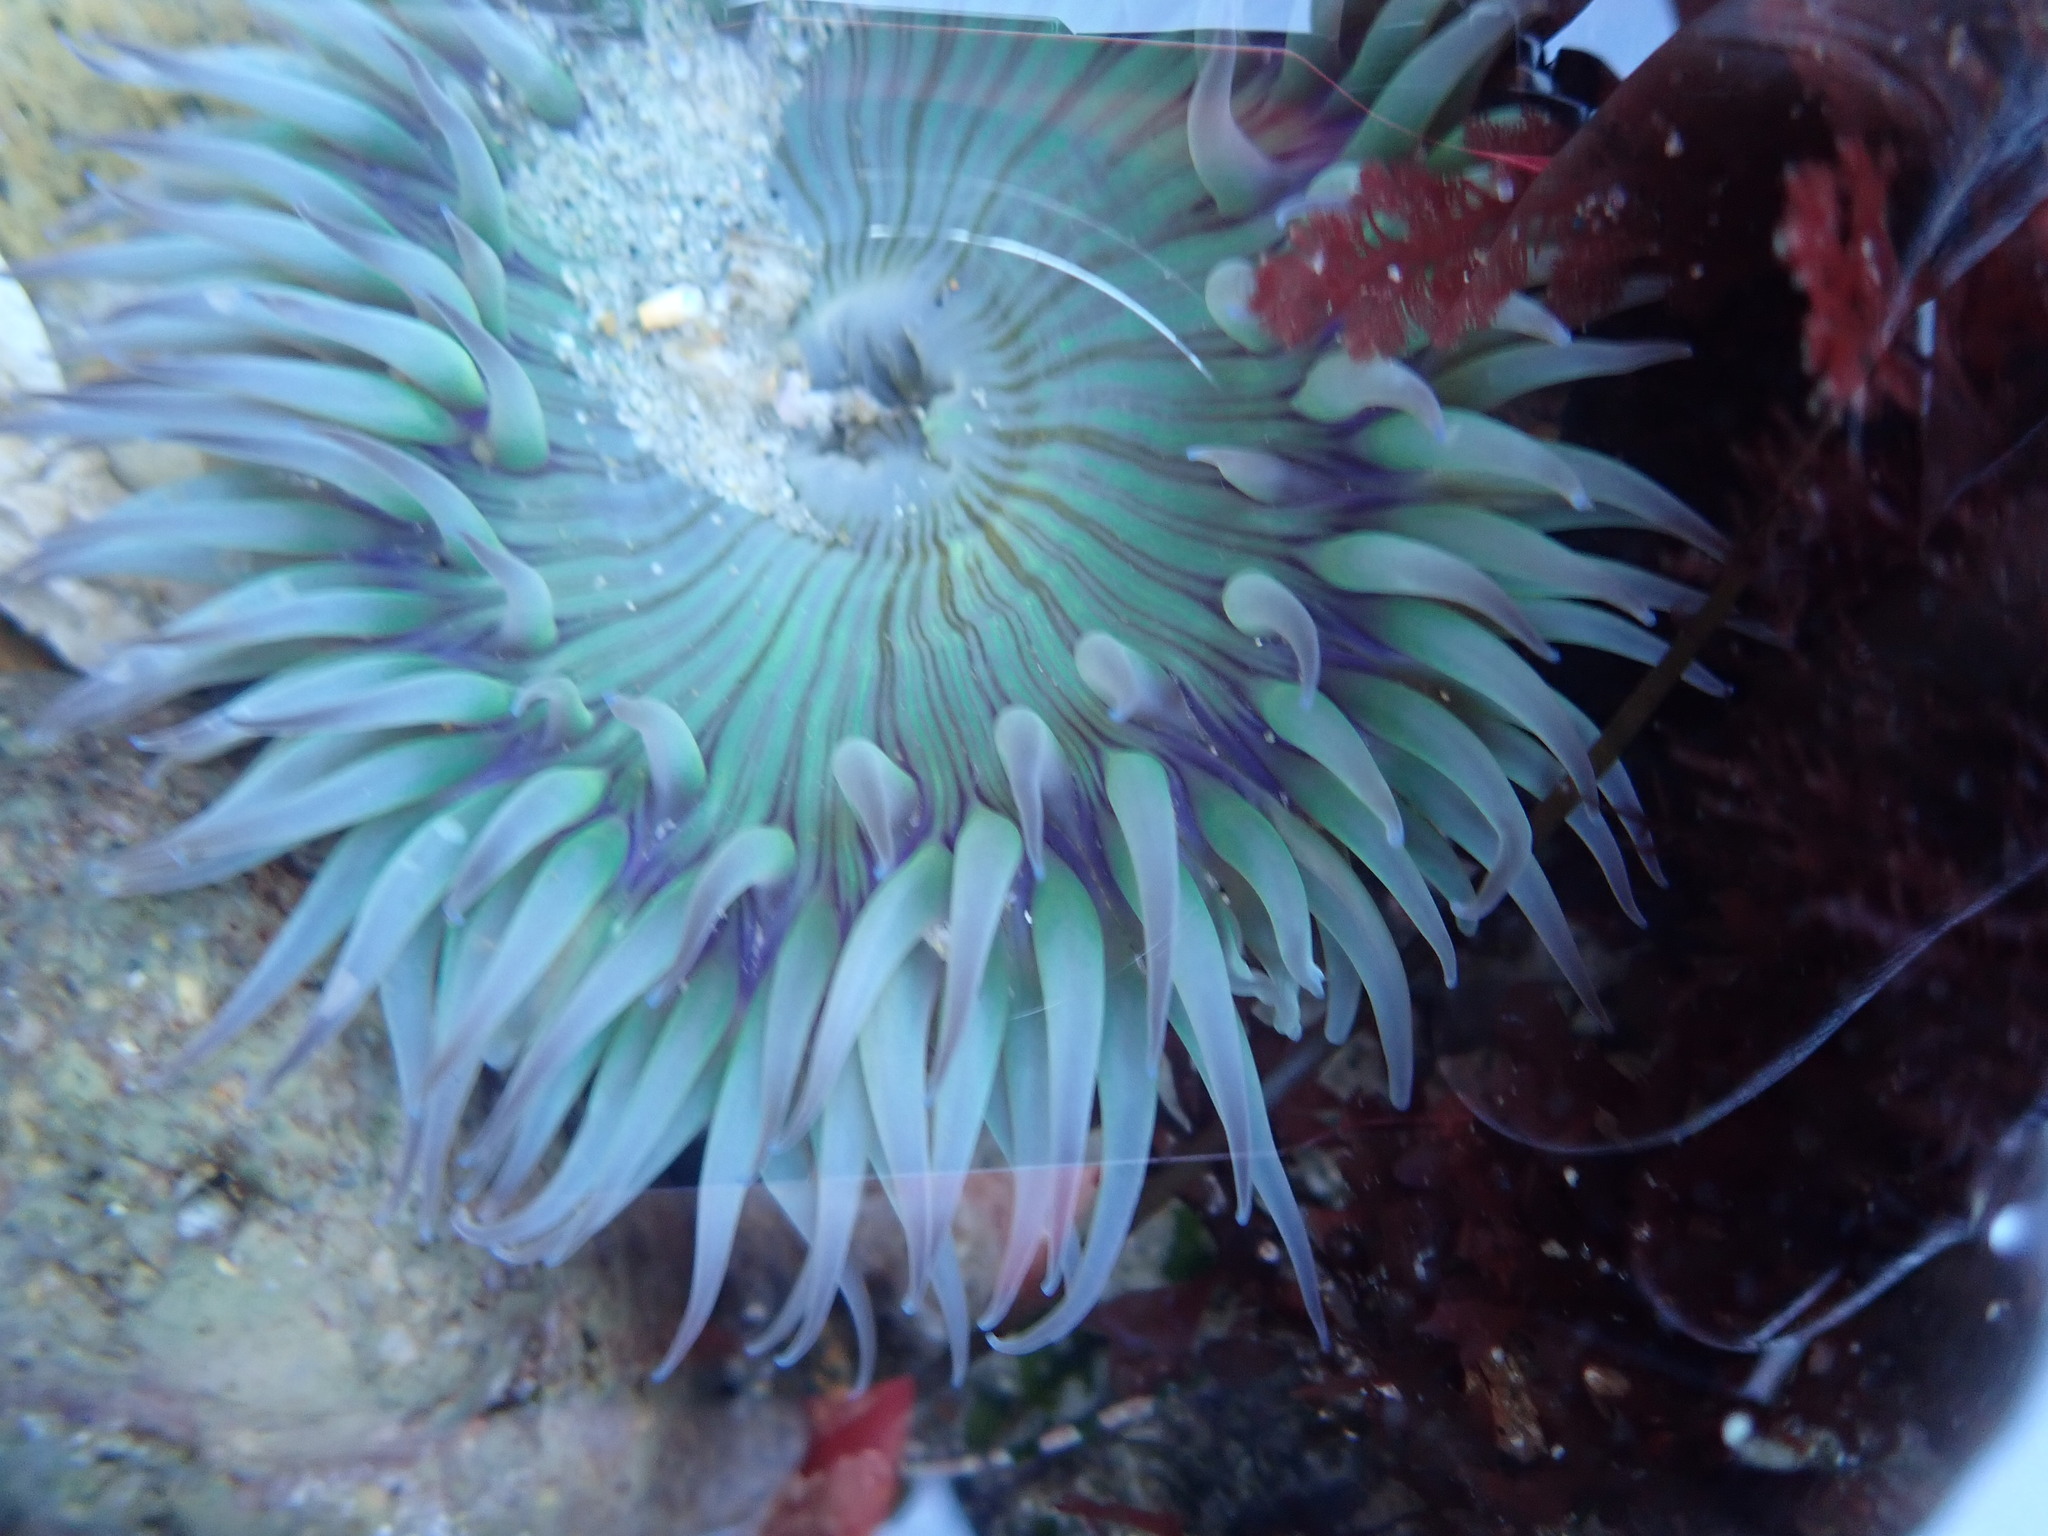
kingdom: Animalia
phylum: Cnidaria
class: Anthozoa
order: Actiniaria
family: Actiniidae
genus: Anthopleura
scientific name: Anthopleura sola
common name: Sun anemone
